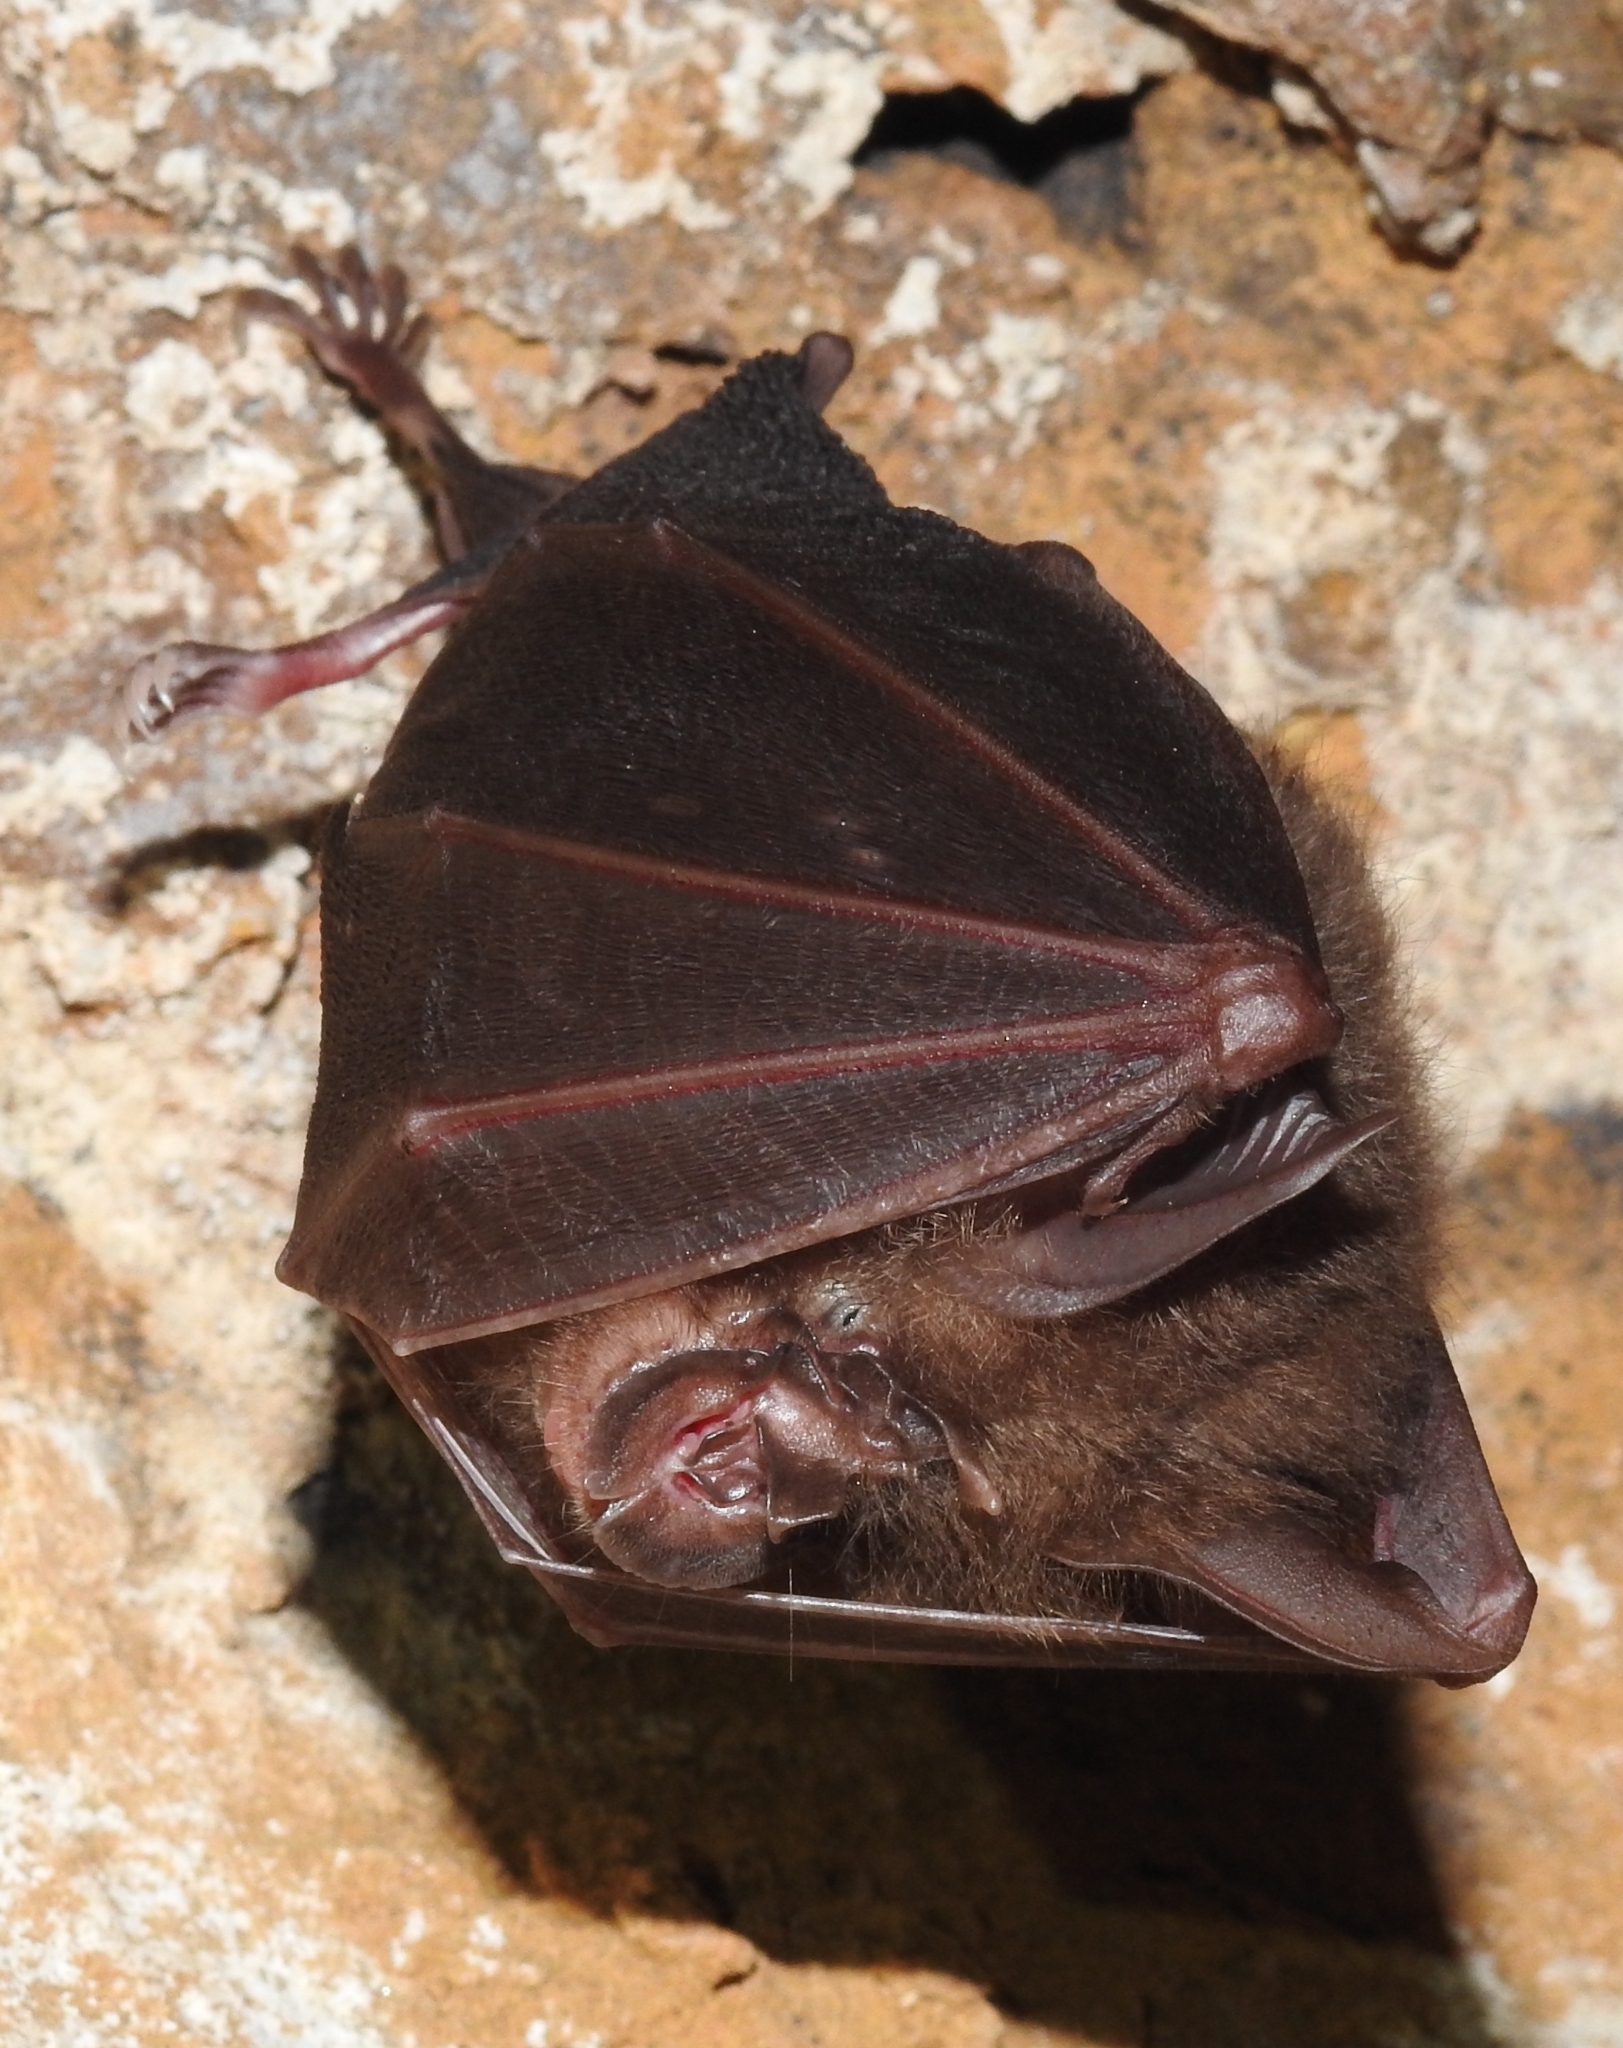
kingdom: Animalia
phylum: Chordata
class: Mammalia
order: Chiroptera
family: Rhinolophidae
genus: Rhinolophus
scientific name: Rhinolophus pearsonii
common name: Pearson's horseshoe bat
